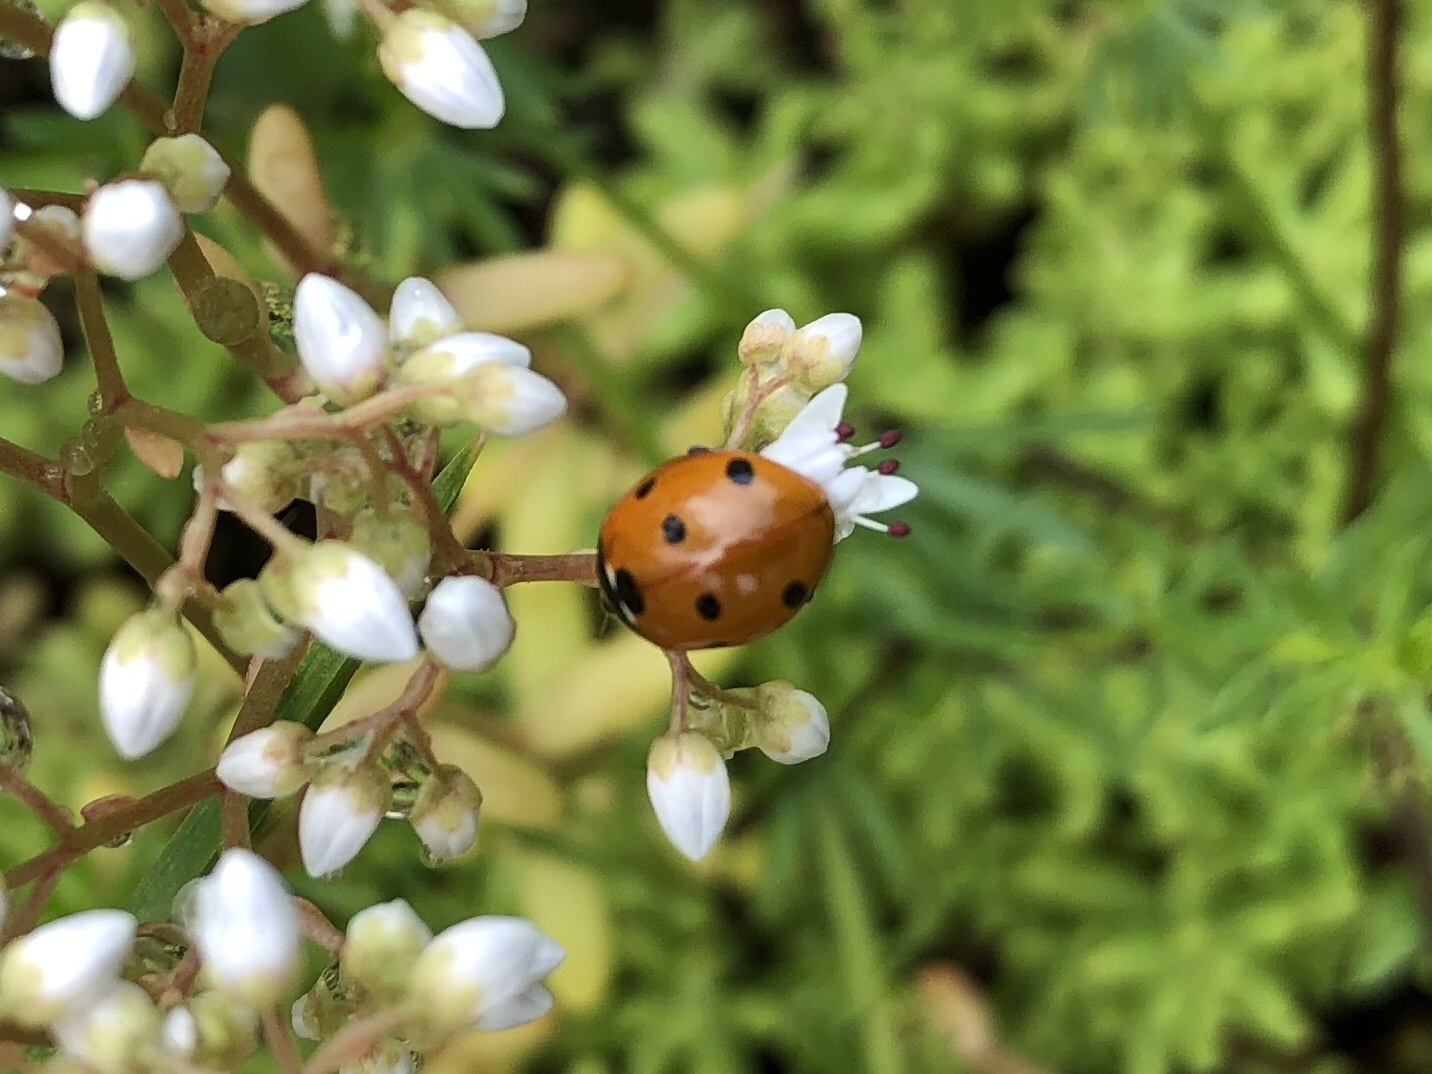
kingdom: Animalia
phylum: Arthropoda
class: Insecta
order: Coleoptera
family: Coccinellidae
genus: Coccinella
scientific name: Coccinella septempunctata
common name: Sevenspotted lady beetle
